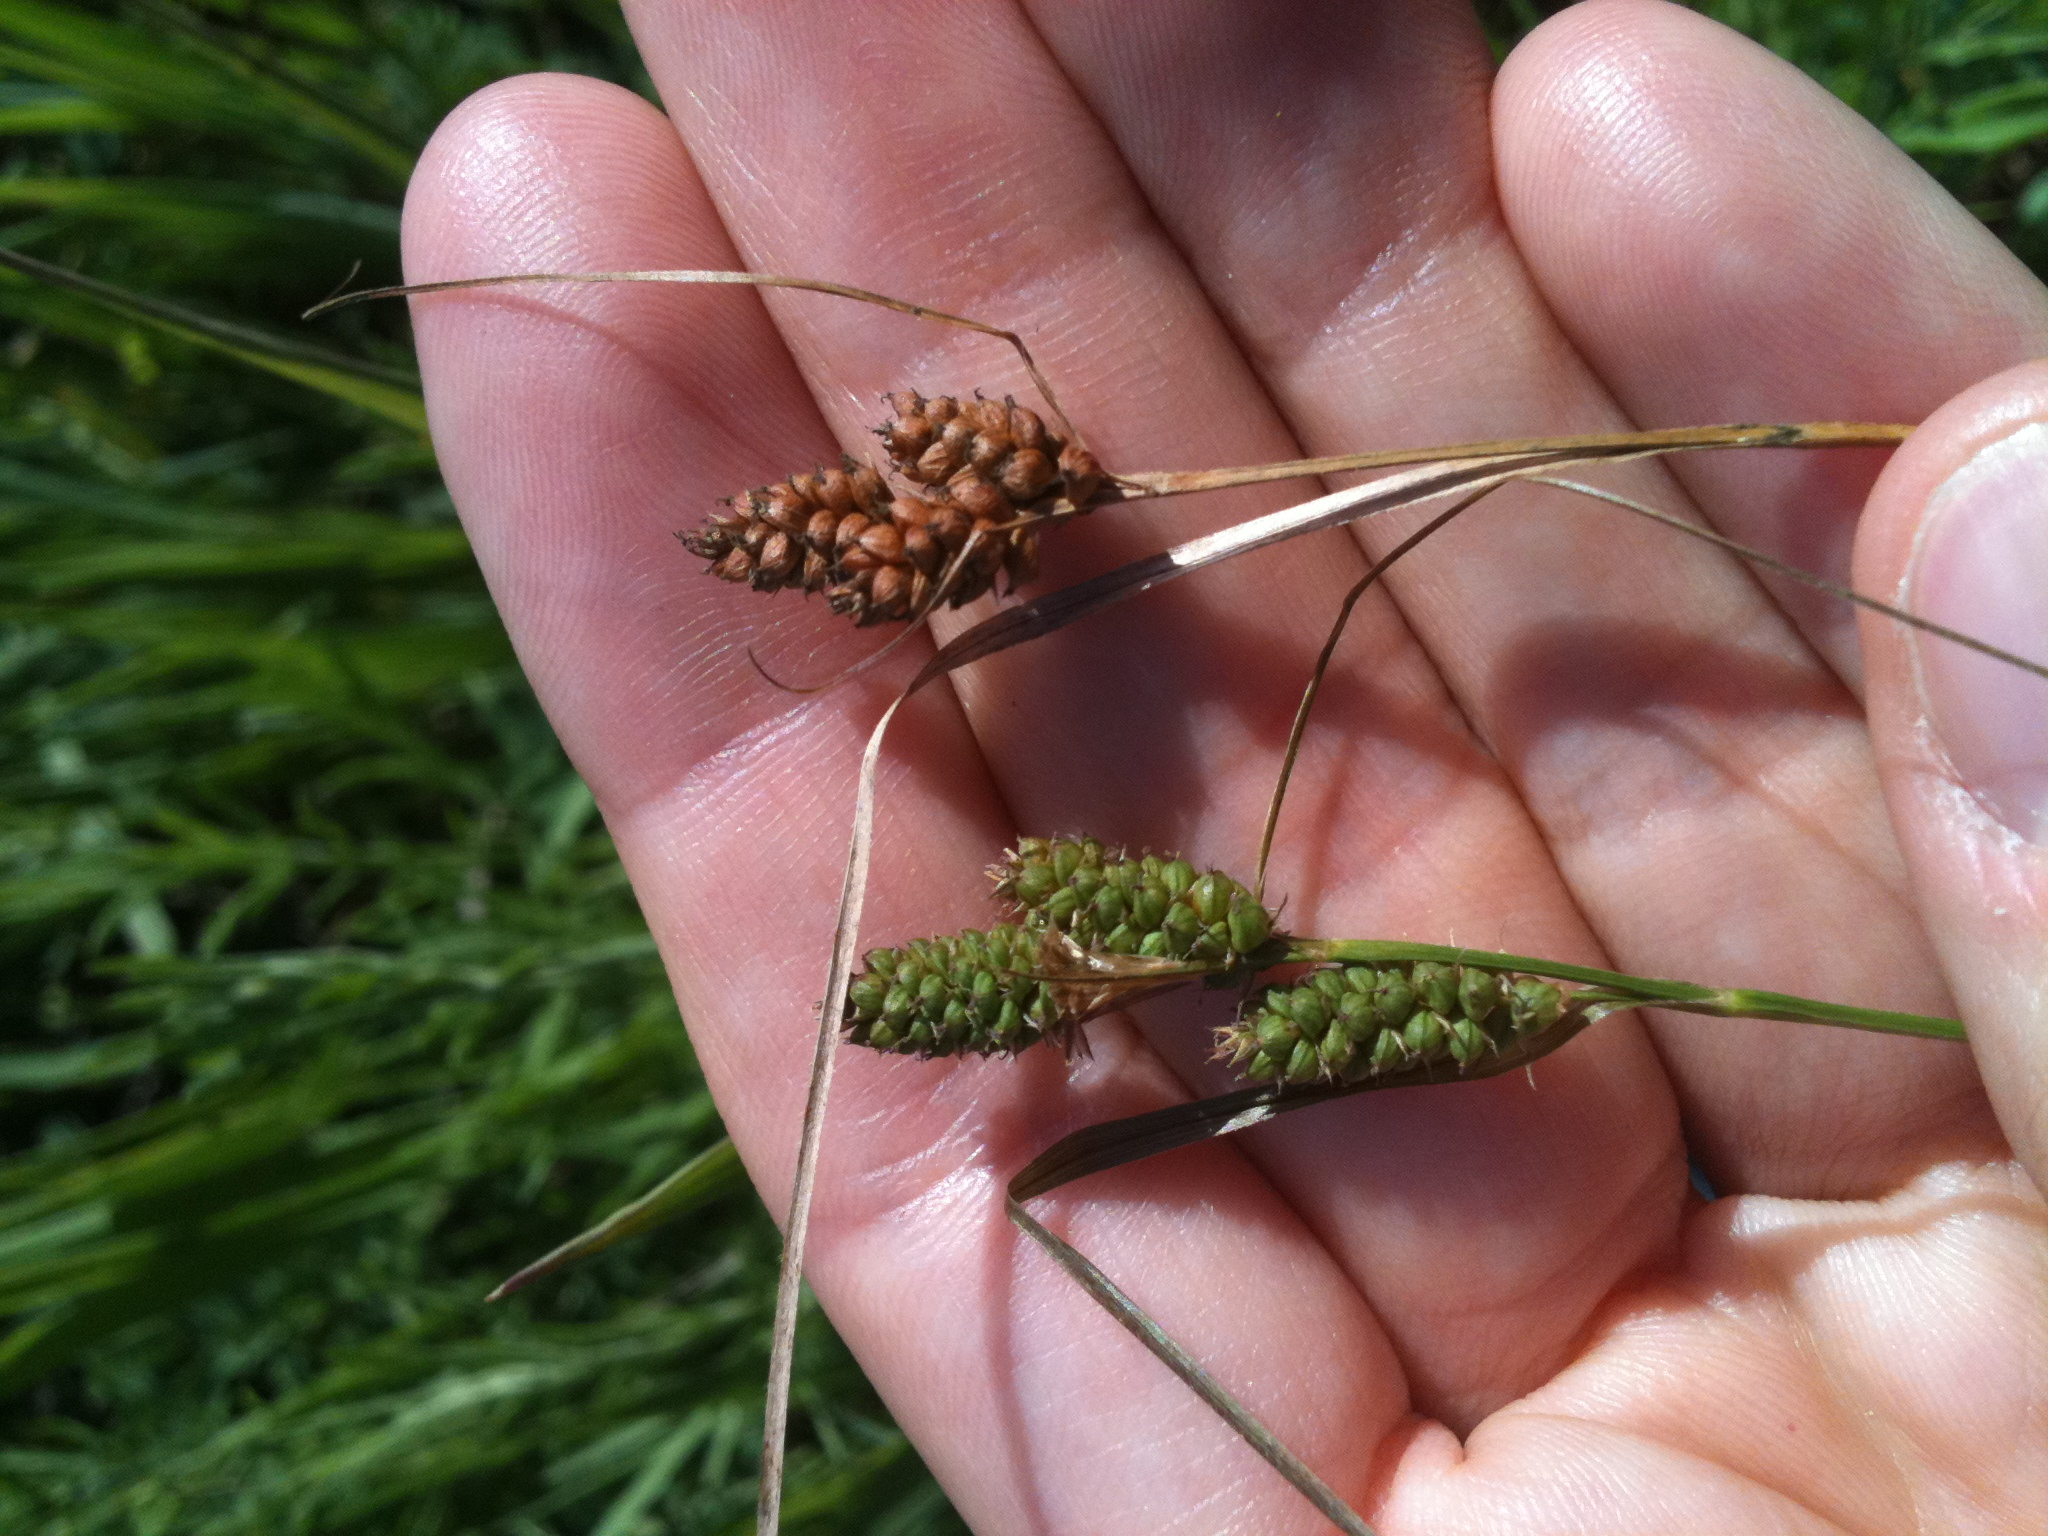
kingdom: Plantae
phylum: Tracheophyta
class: Liliopsida
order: Poales
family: Cyperaceae
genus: Carex
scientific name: Carex hirsutella
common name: Fuzzy wuzzy sedge
